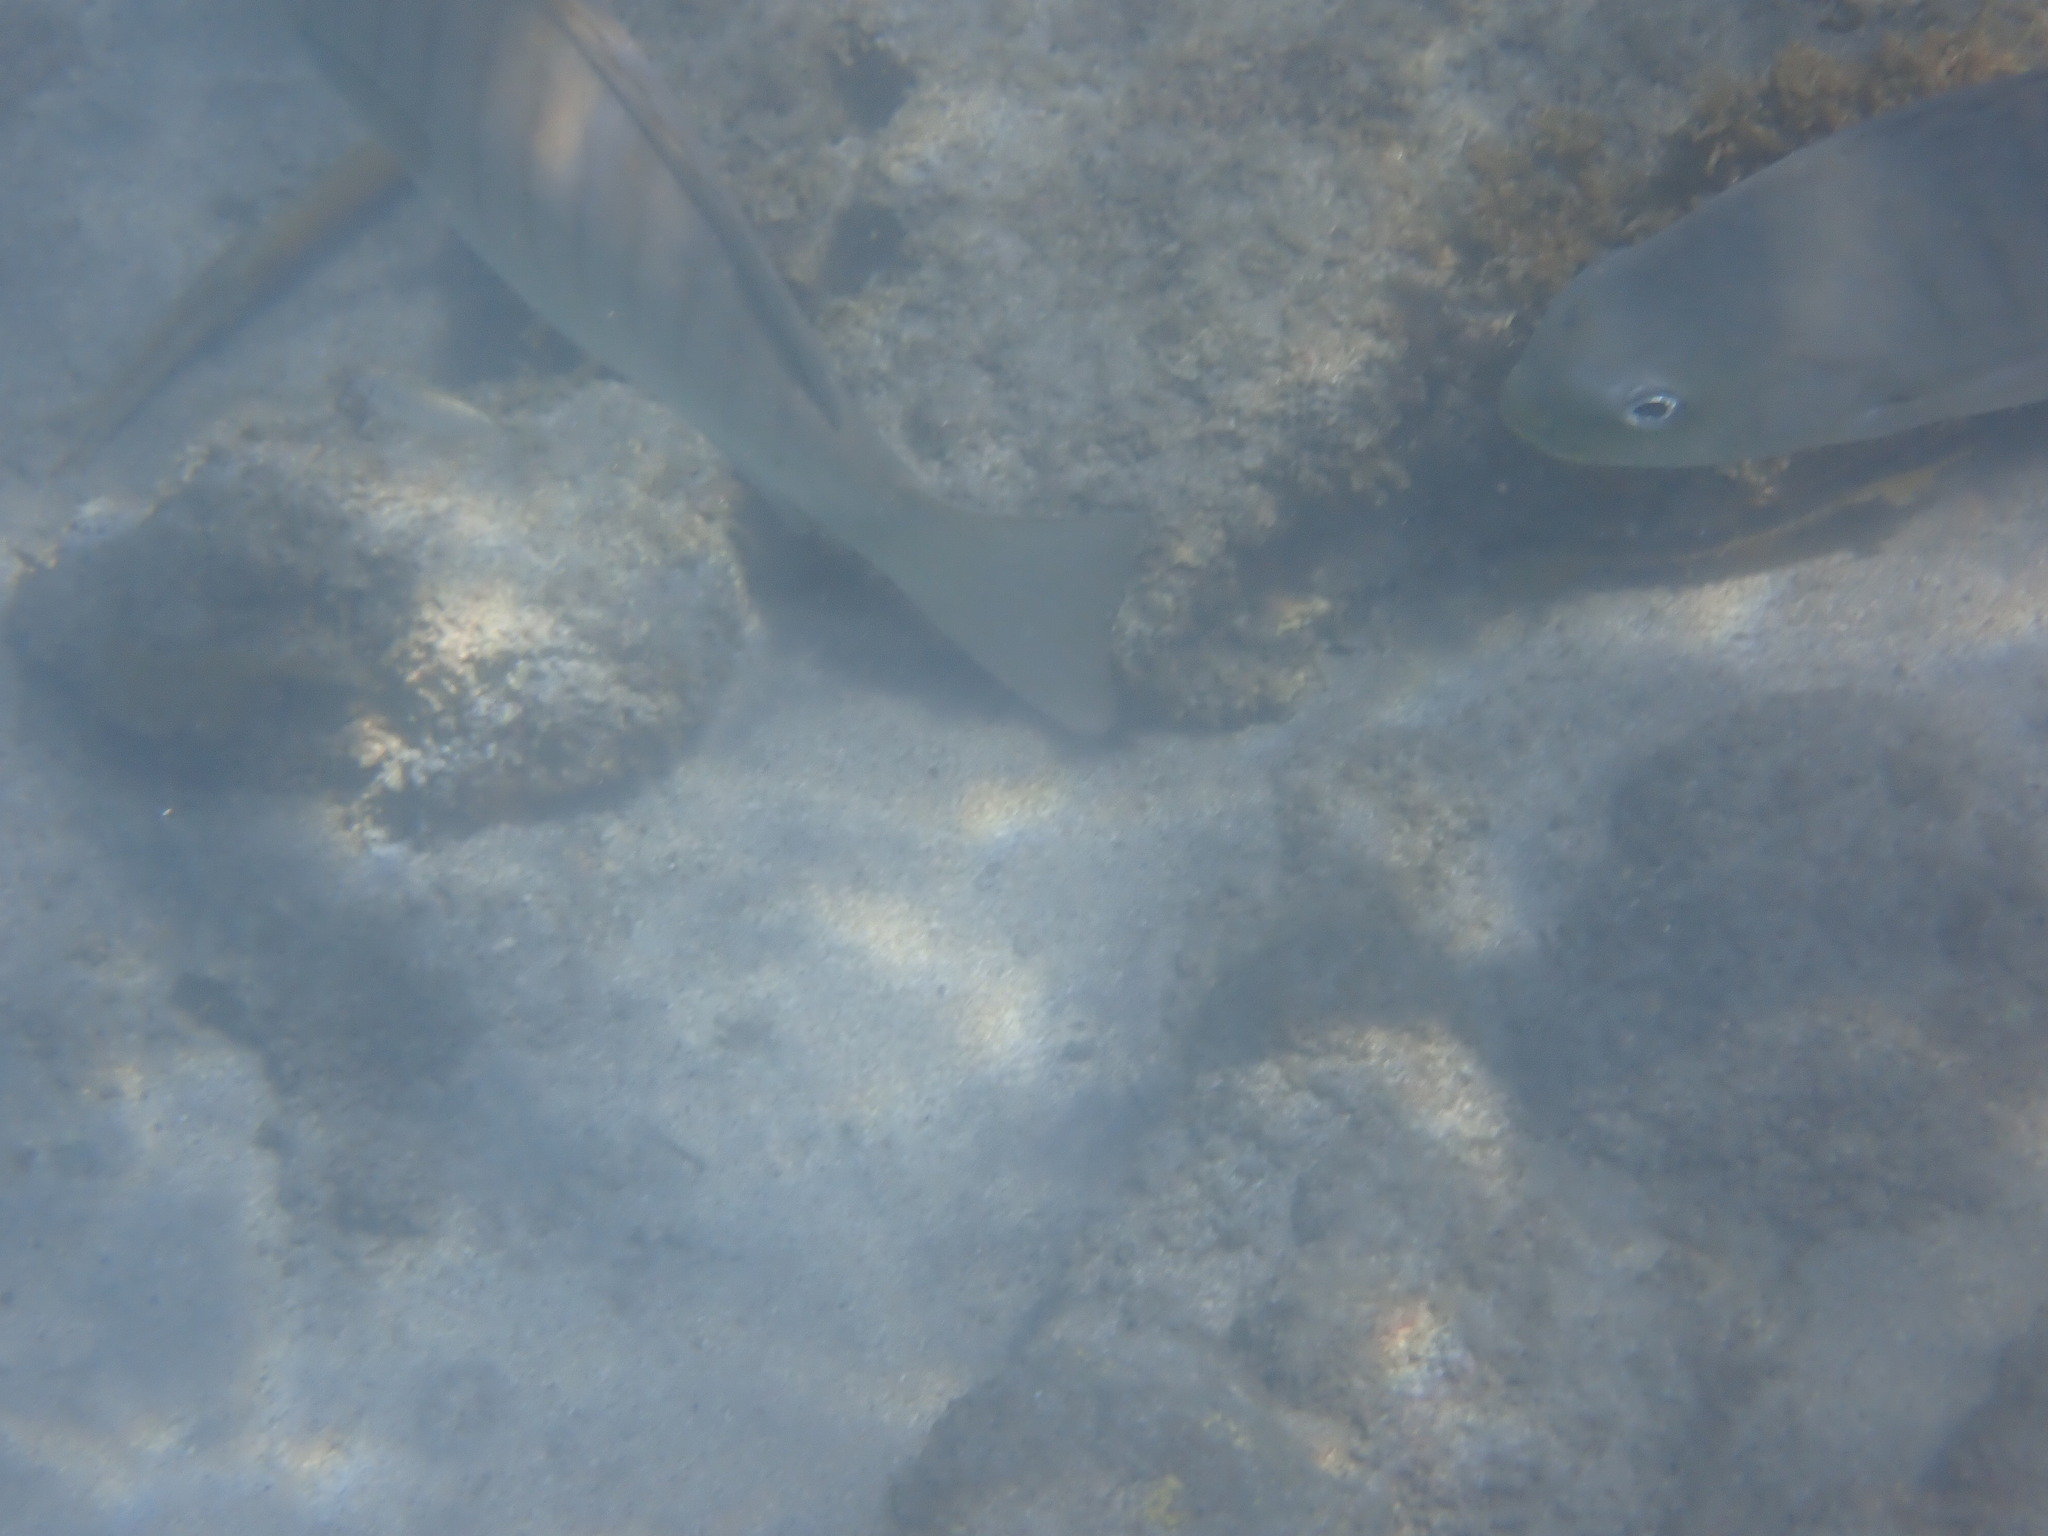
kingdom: Animalia
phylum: Chordata
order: Perciformes
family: Kyphosidae
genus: Girella
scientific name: Girella tricuspidata
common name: Parore
